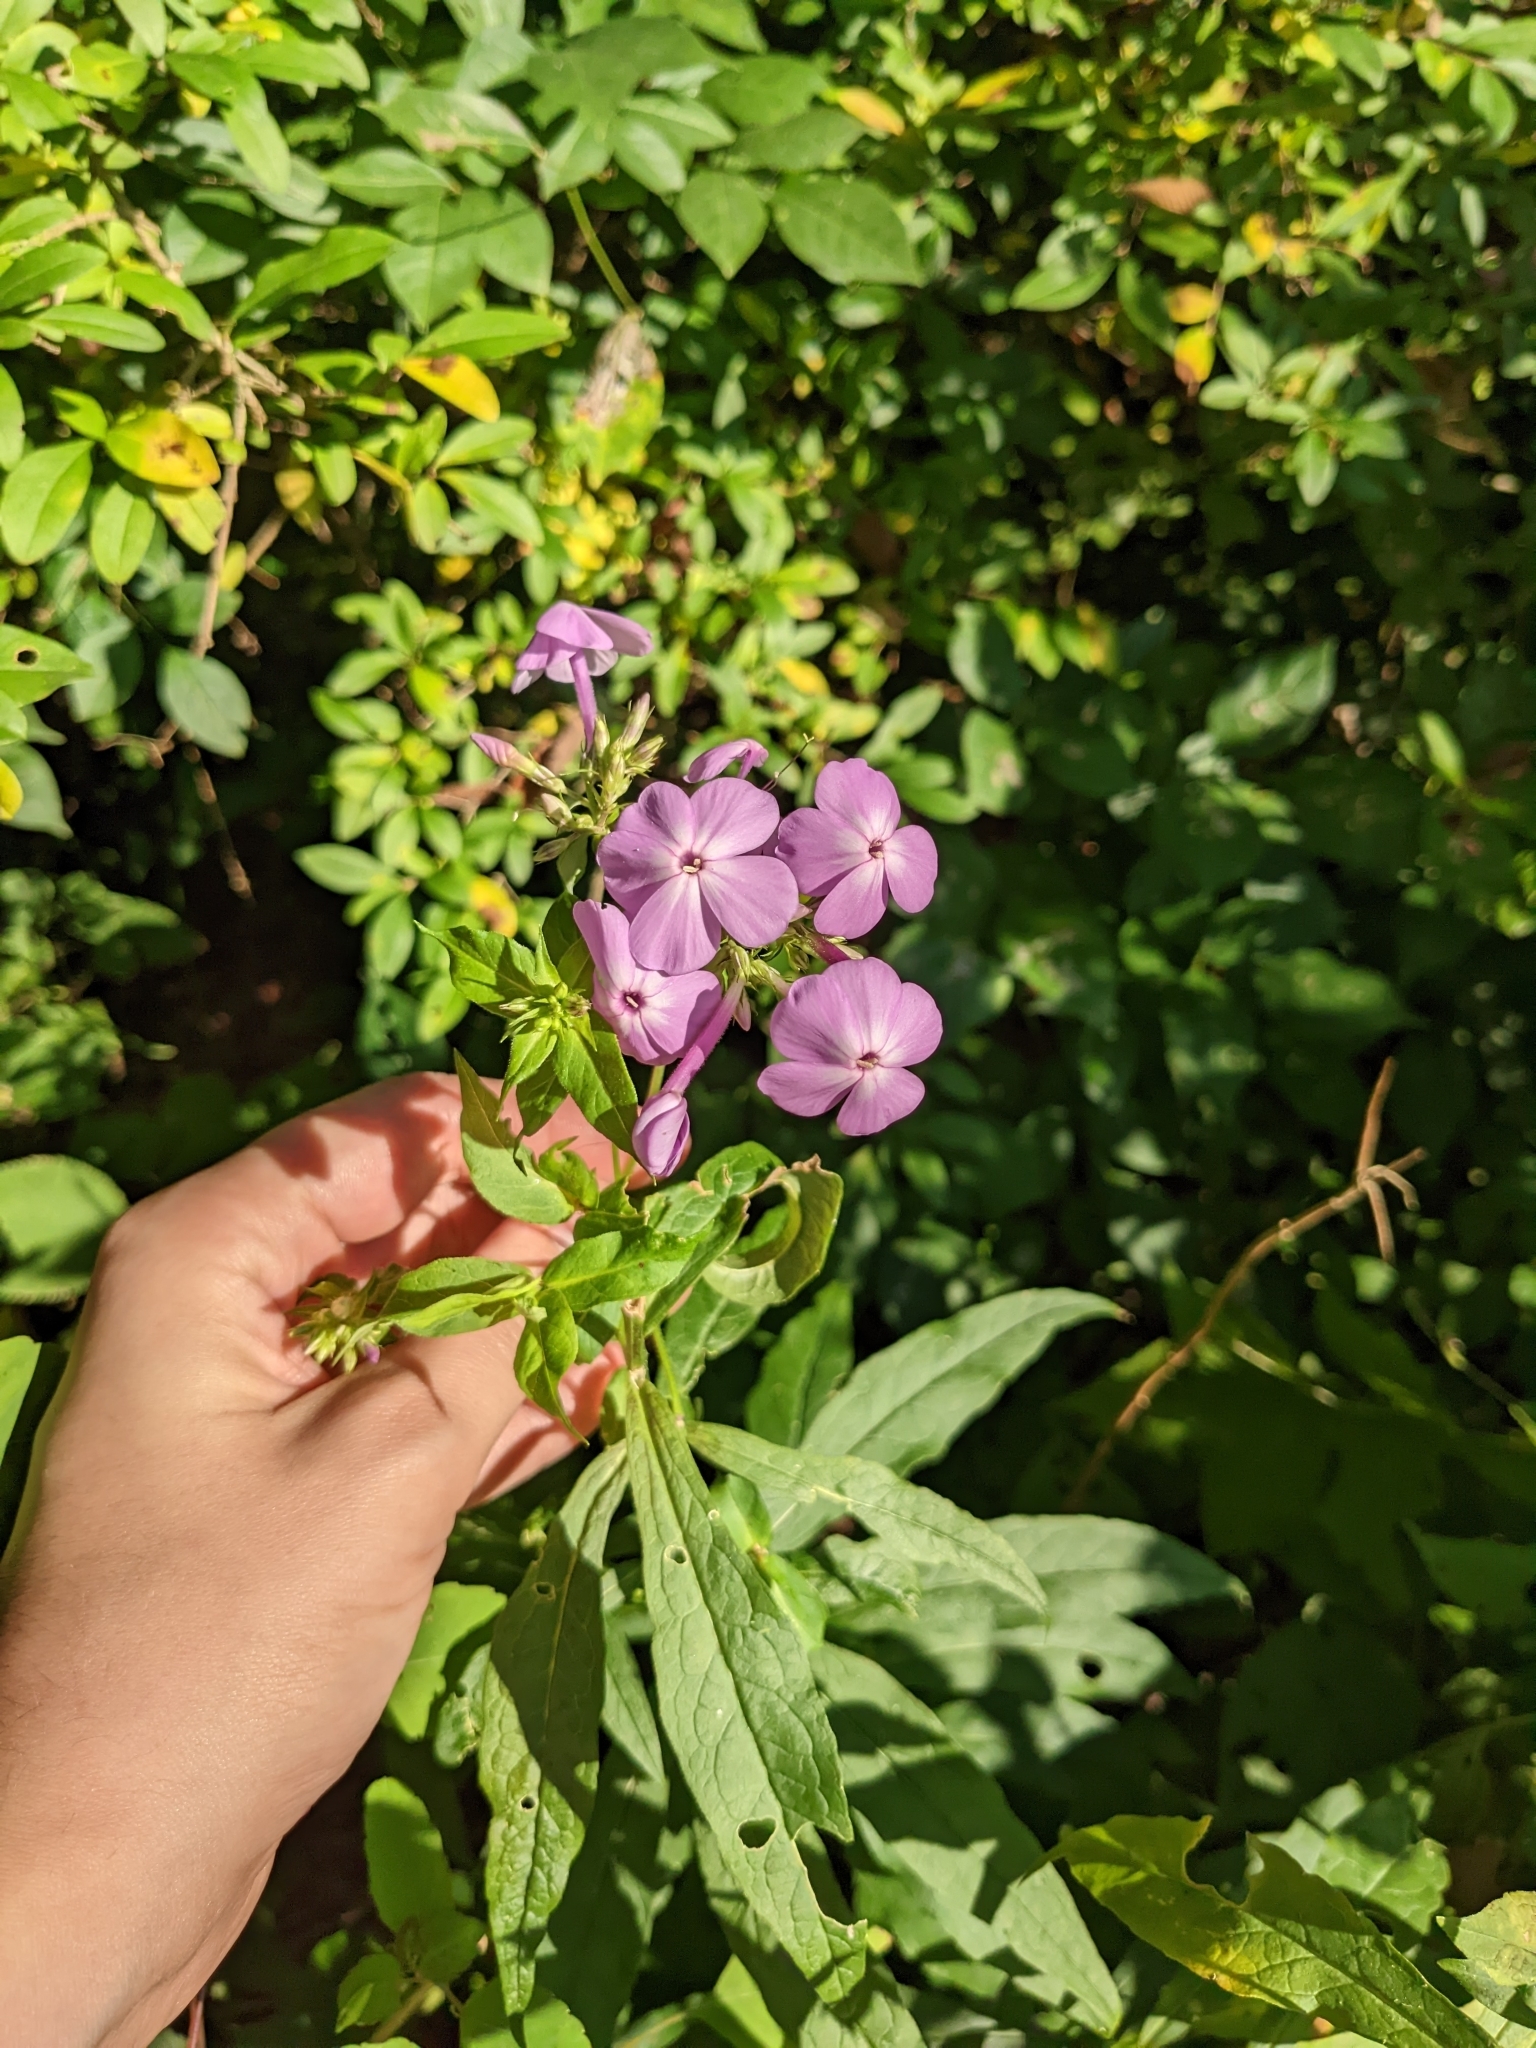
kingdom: Plantae
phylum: Tracheophyta
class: Magnoliopsida
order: Ericales
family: Polemoniaceae
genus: Phlox
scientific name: Phlox paniculata
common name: Fall phlox
